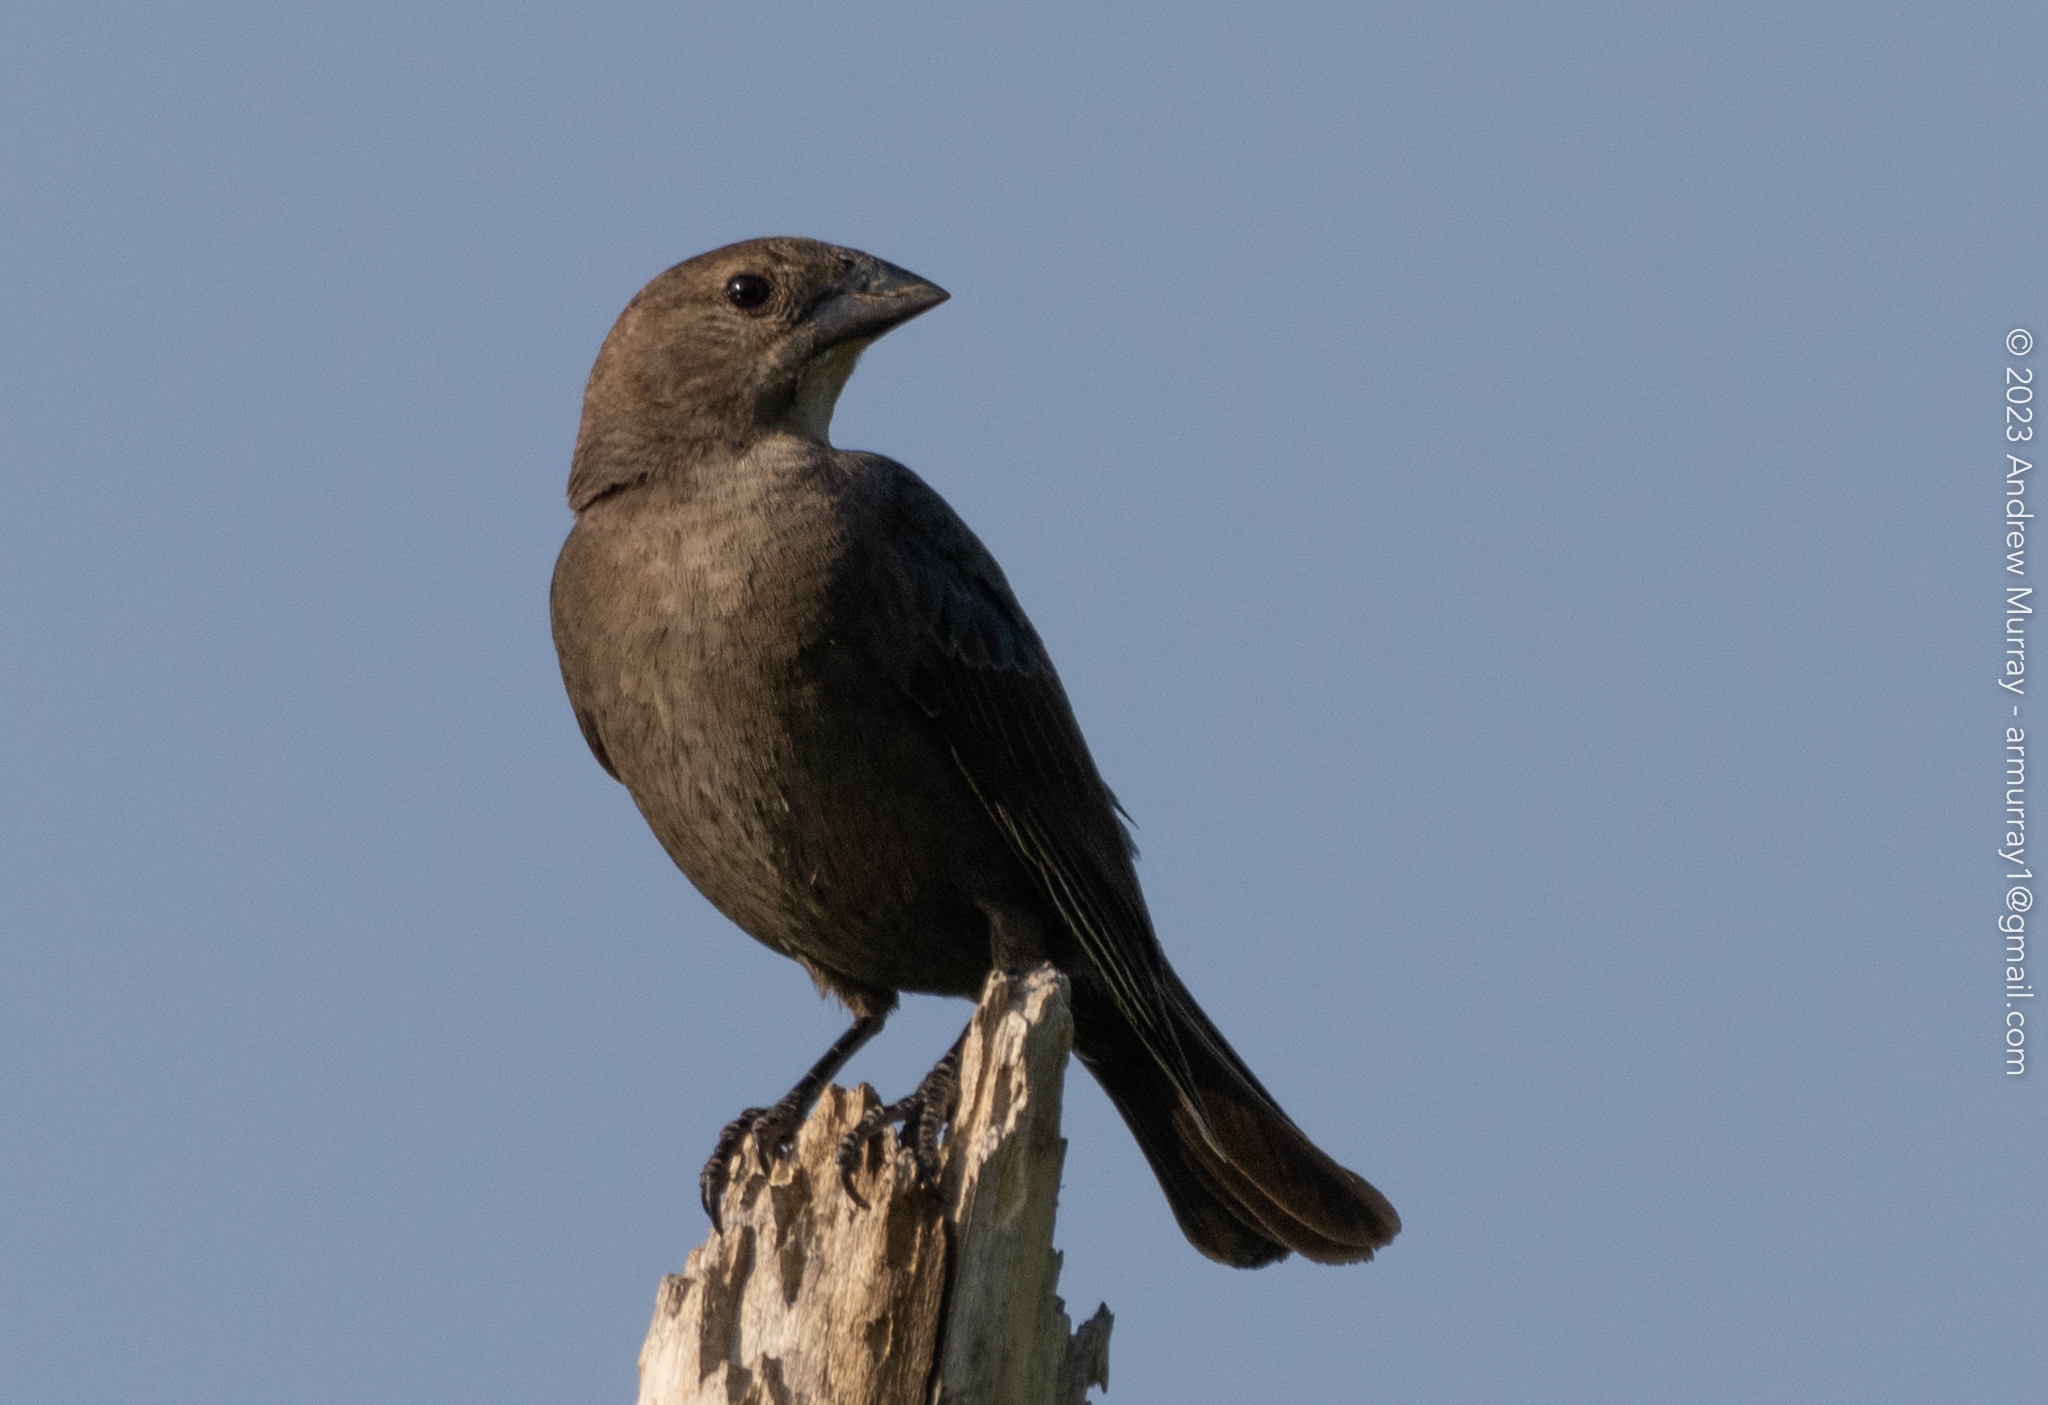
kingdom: Animalia
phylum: Chordata
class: Aves
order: Passeriformes
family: Icteridae
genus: Molothrus
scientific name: Molothrus ater
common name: Brown-headed cowbird
